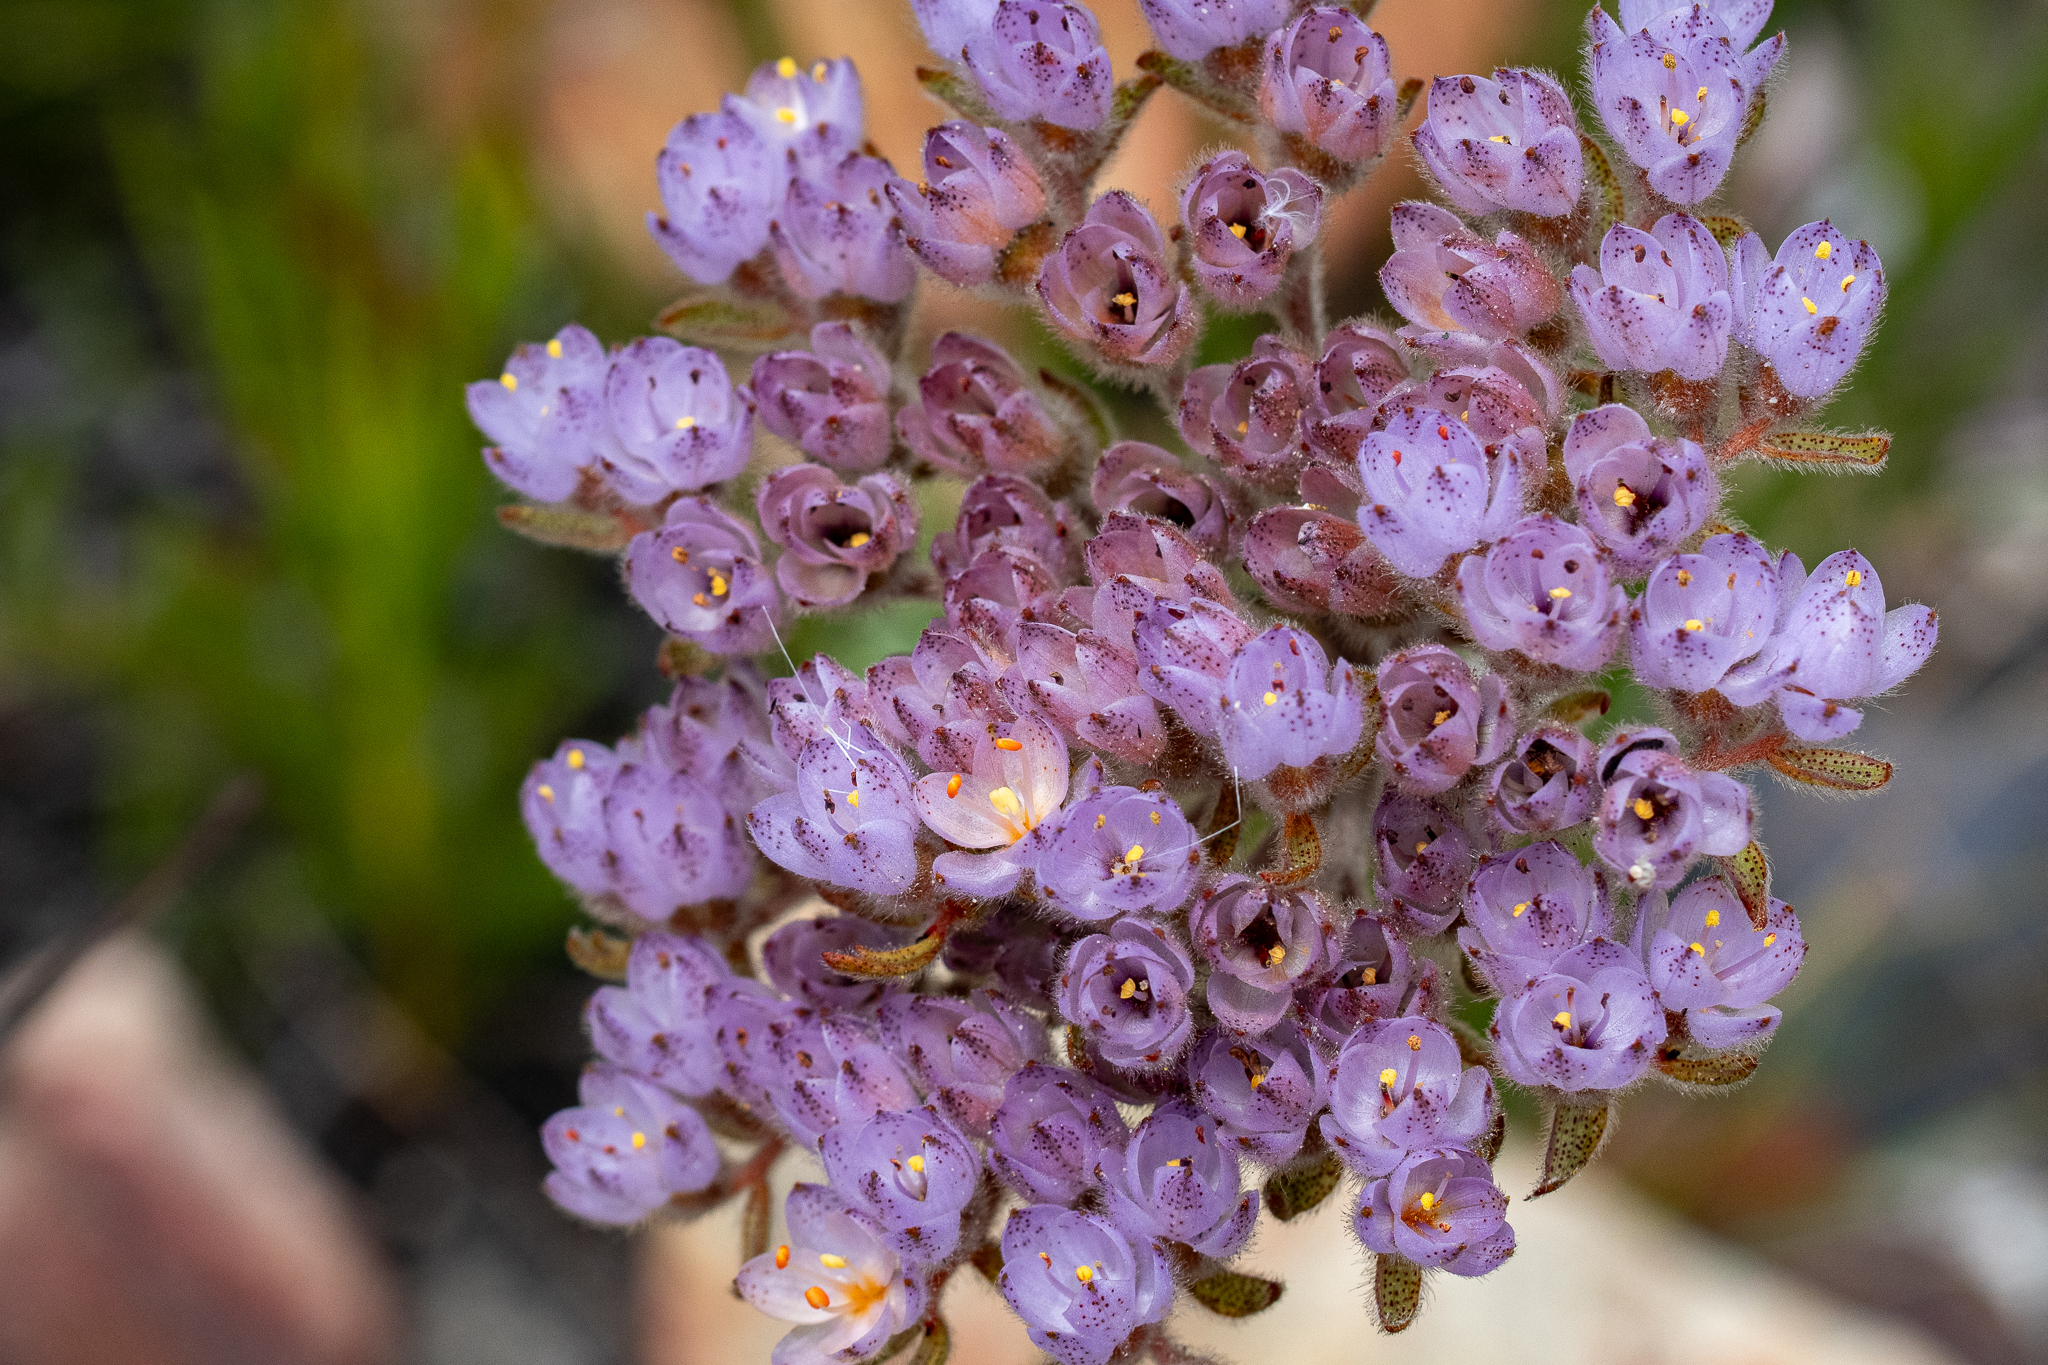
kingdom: Plantae
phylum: Tracheophyta
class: Liliopsida
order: Commelinales
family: Haemodoraceae
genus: Dilatris
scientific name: Dilatris pillansii
